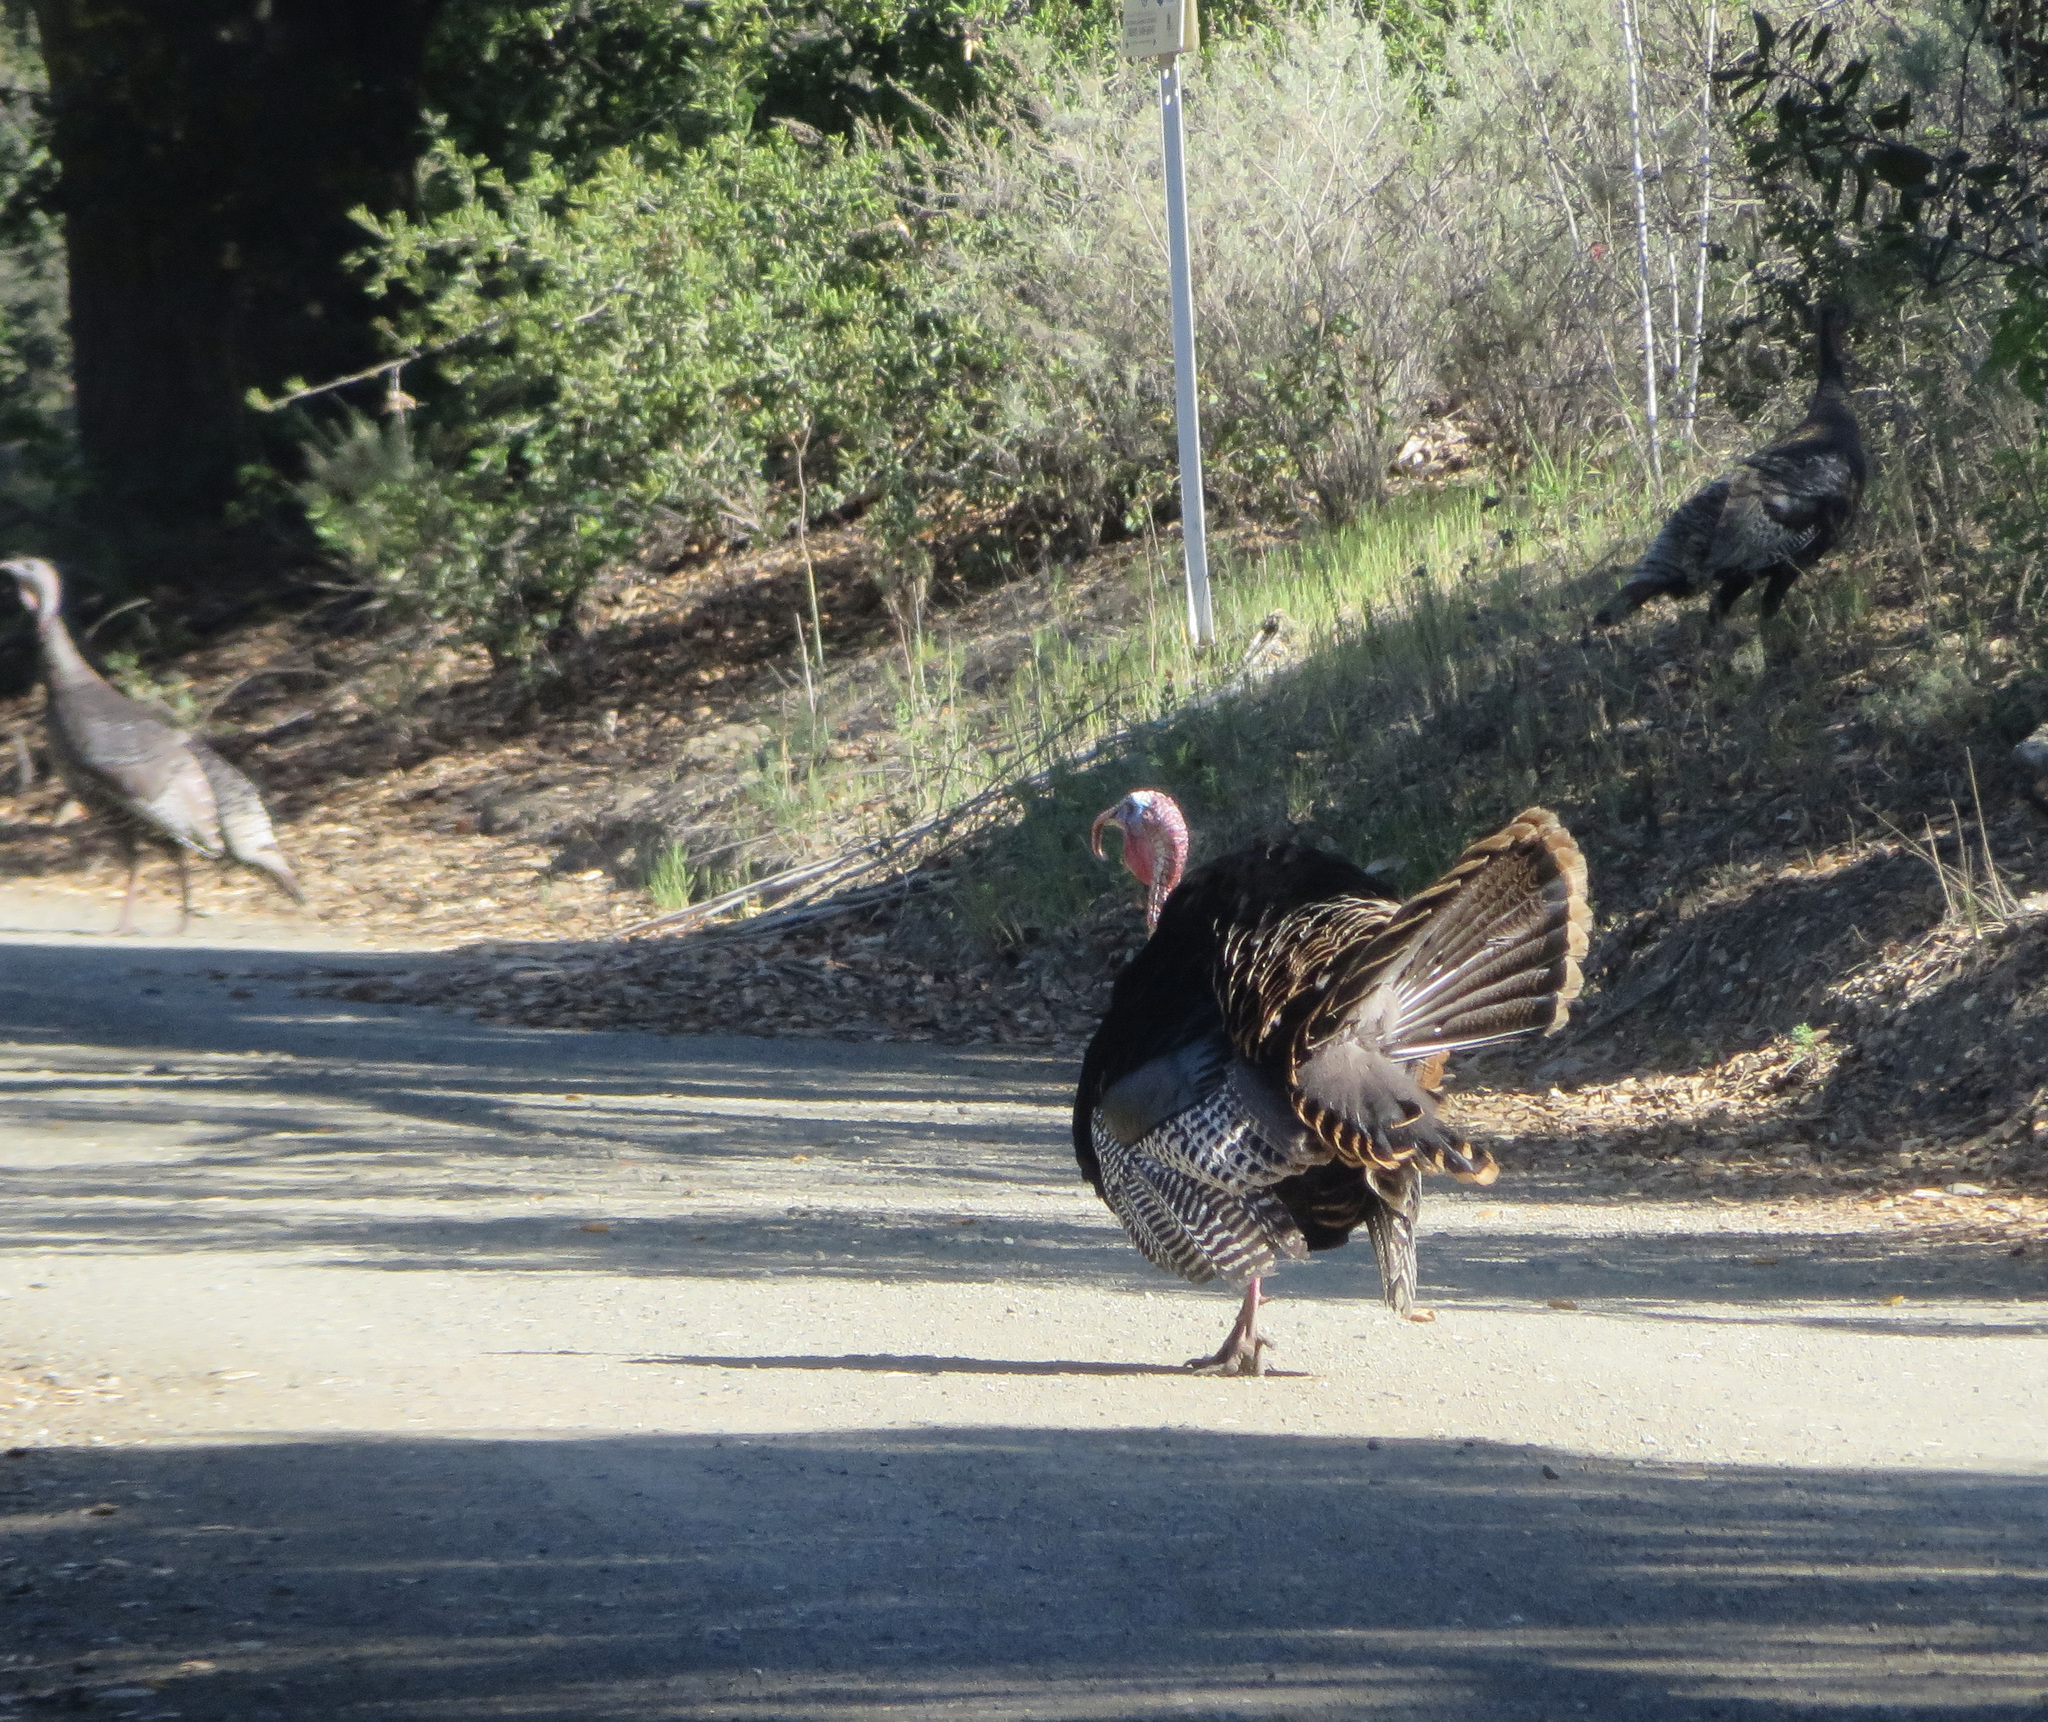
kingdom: Animalia
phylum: Chordata
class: Aves
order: Galliformes
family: Phasianidae
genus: Meleagris
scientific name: Meleagris gallopavo
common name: Wild turkey
